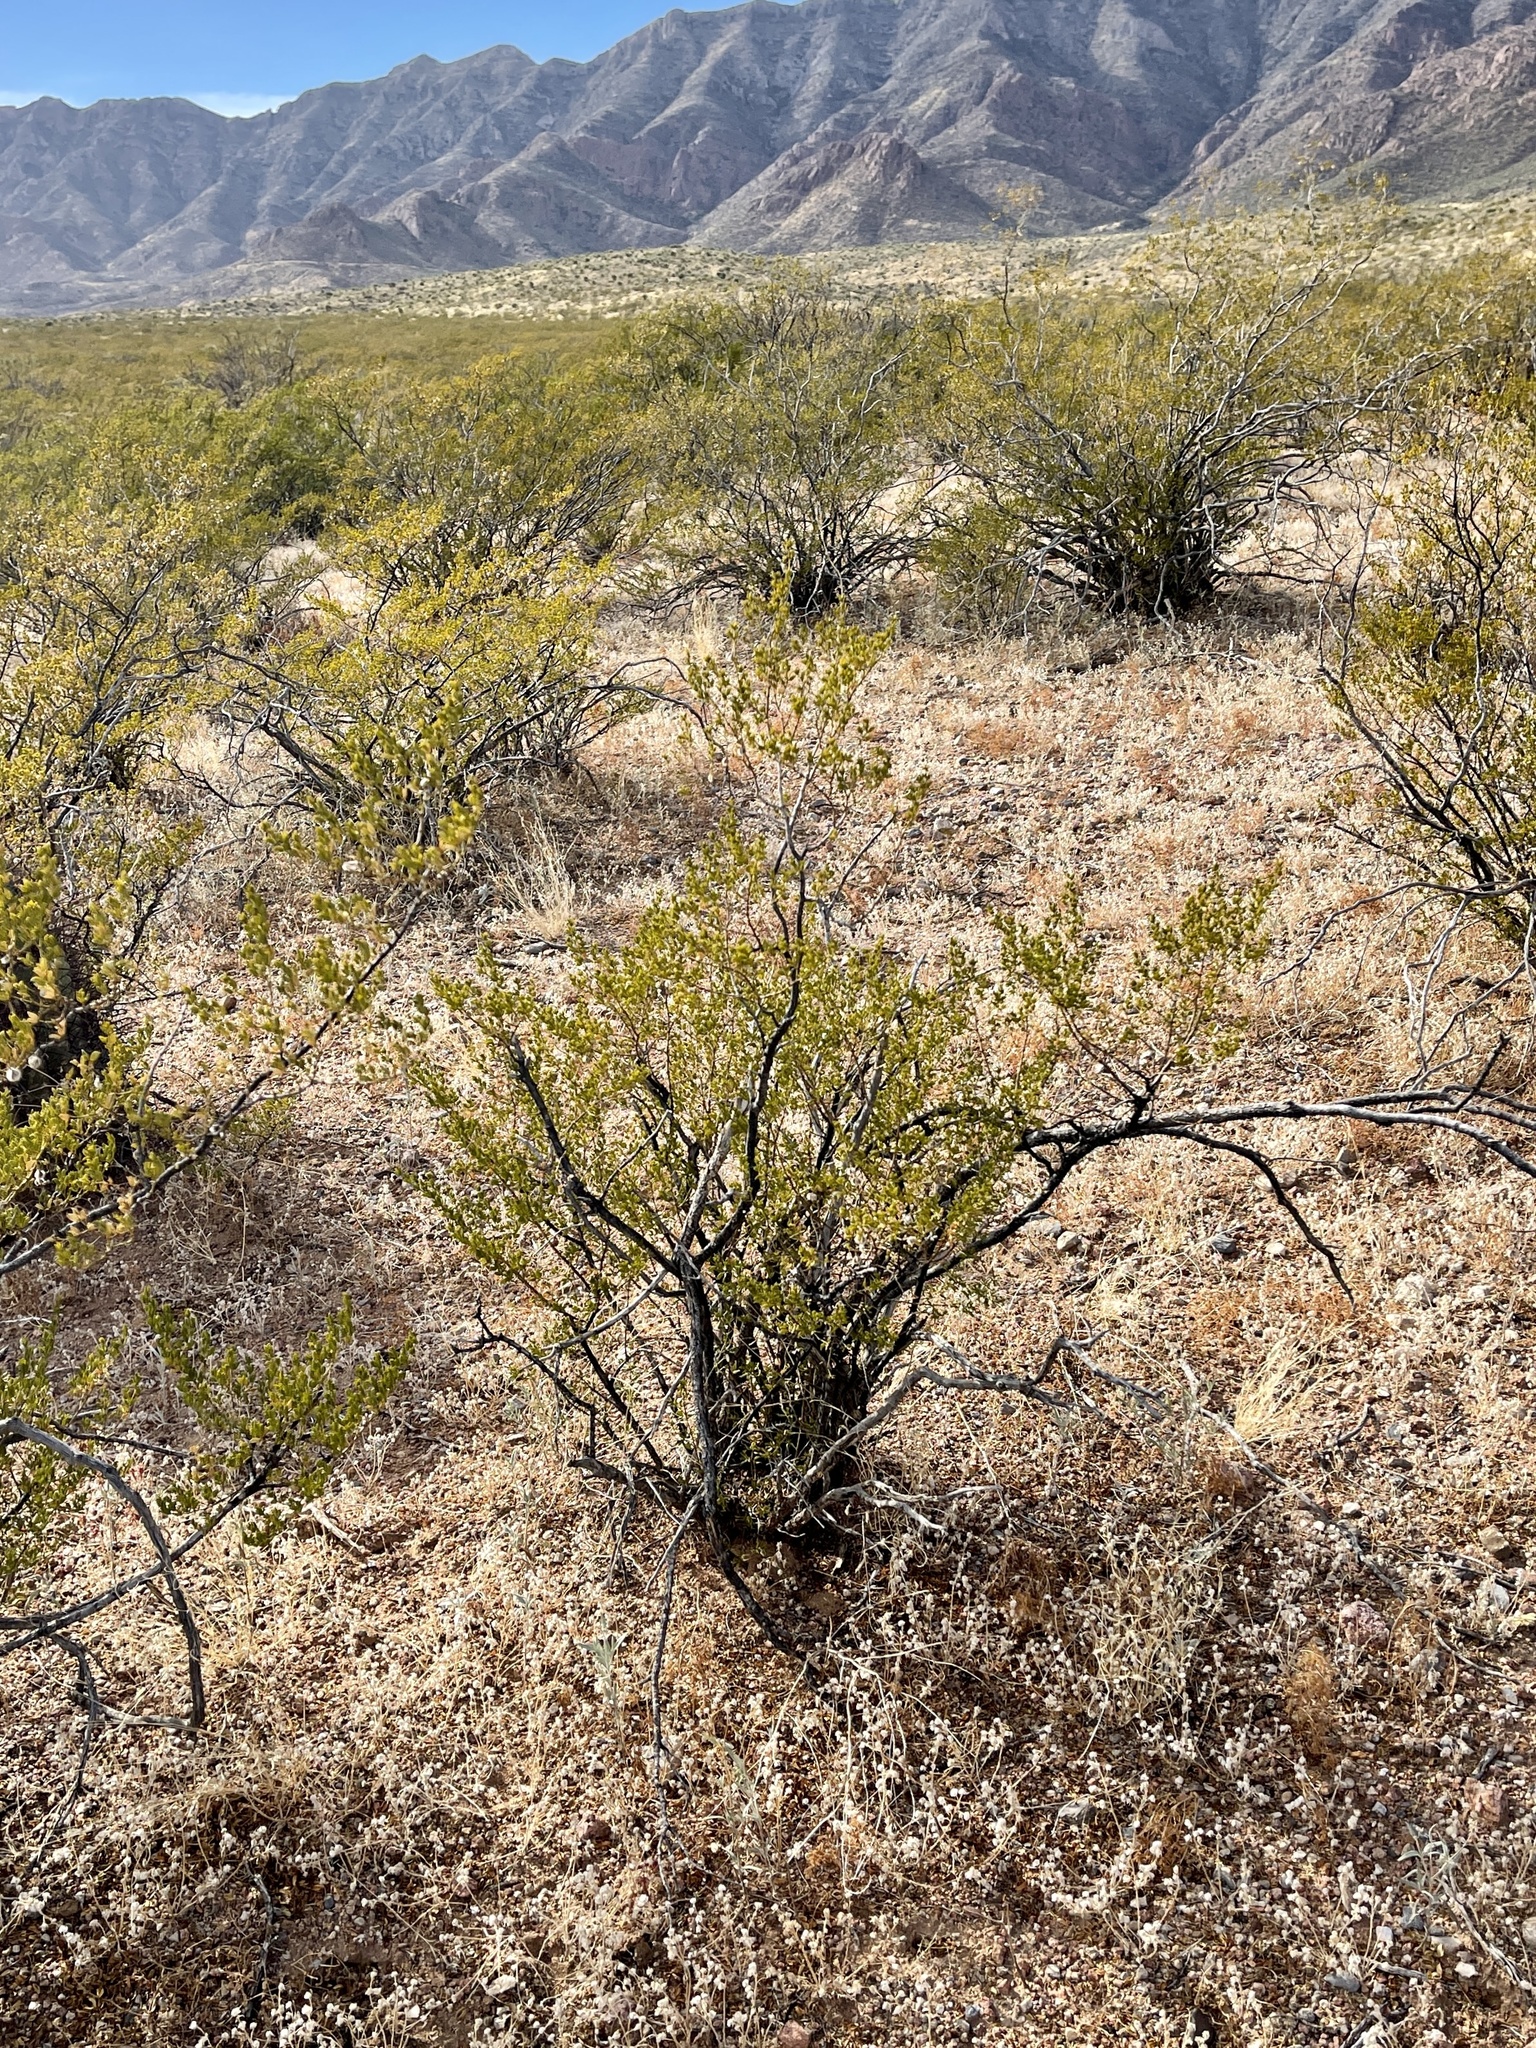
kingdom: Plantae
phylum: Tracheophyta
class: Magnoliopsida
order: Zygophyllales
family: Zygophyllaceae
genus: Larrea
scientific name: Larrea tridentata
